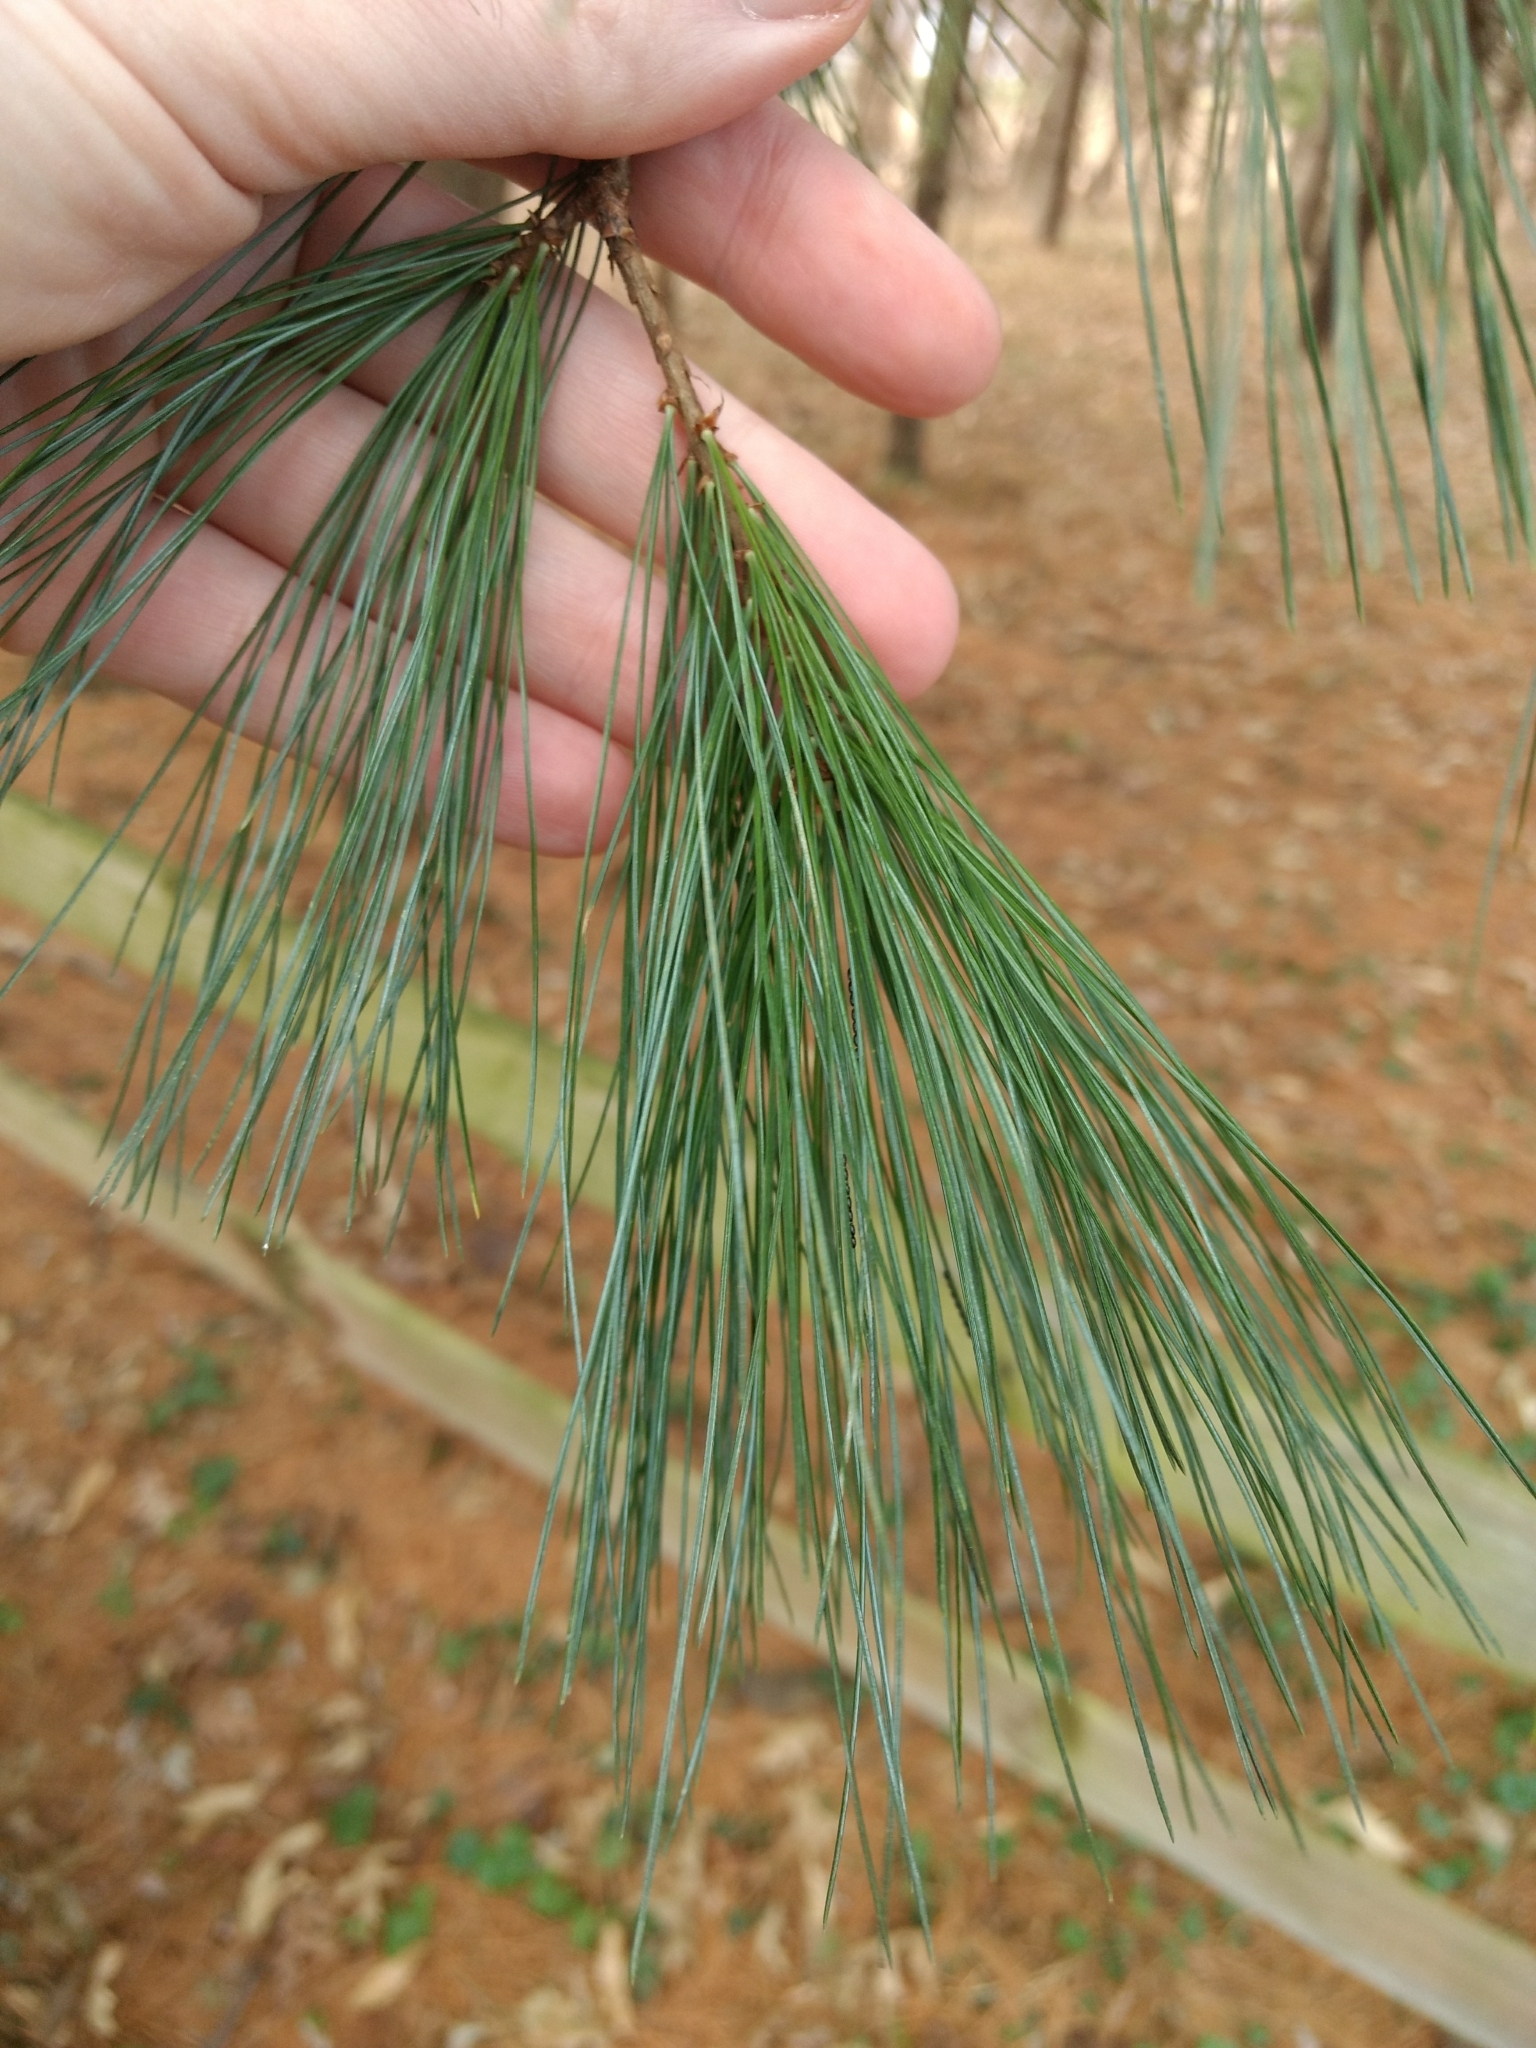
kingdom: Plantae
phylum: Tracheophyta
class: Pinopsida
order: Pinales
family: Pinaceae
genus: Pinus
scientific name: Pinus strobus
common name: Weymouth pine
